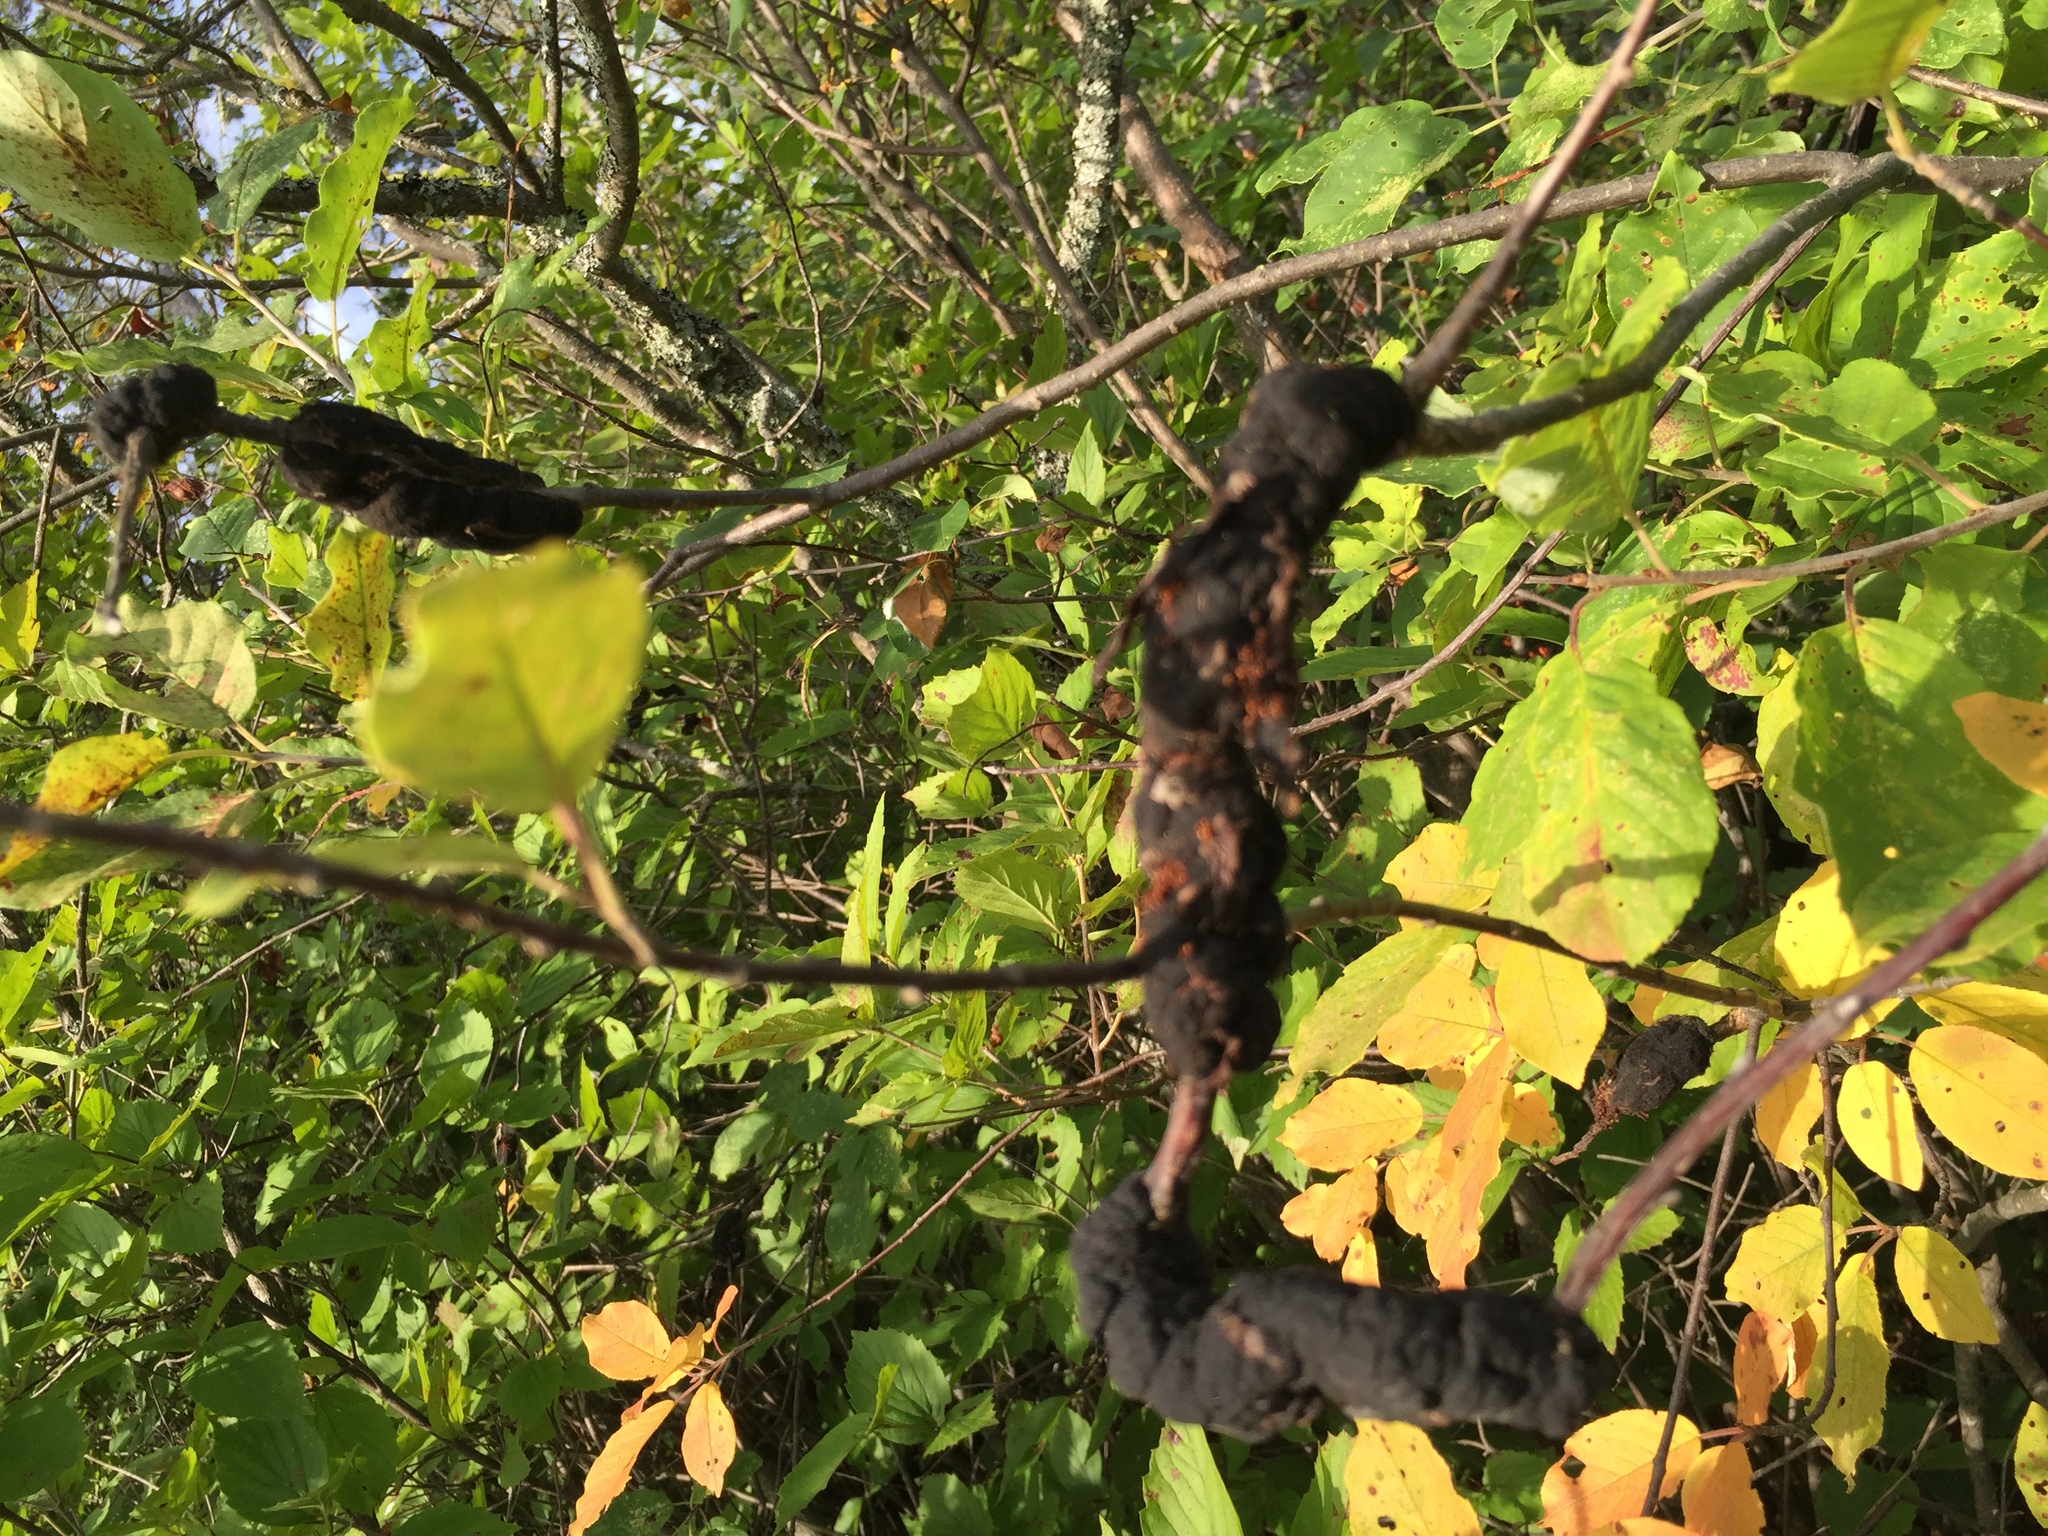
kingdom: Fungi
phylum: Ascomycota
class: Dothideomycetes
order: Venturiales
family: Venturiaceae
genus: Apiosporina
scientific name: Apiosporina morbosa
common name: Black knot
